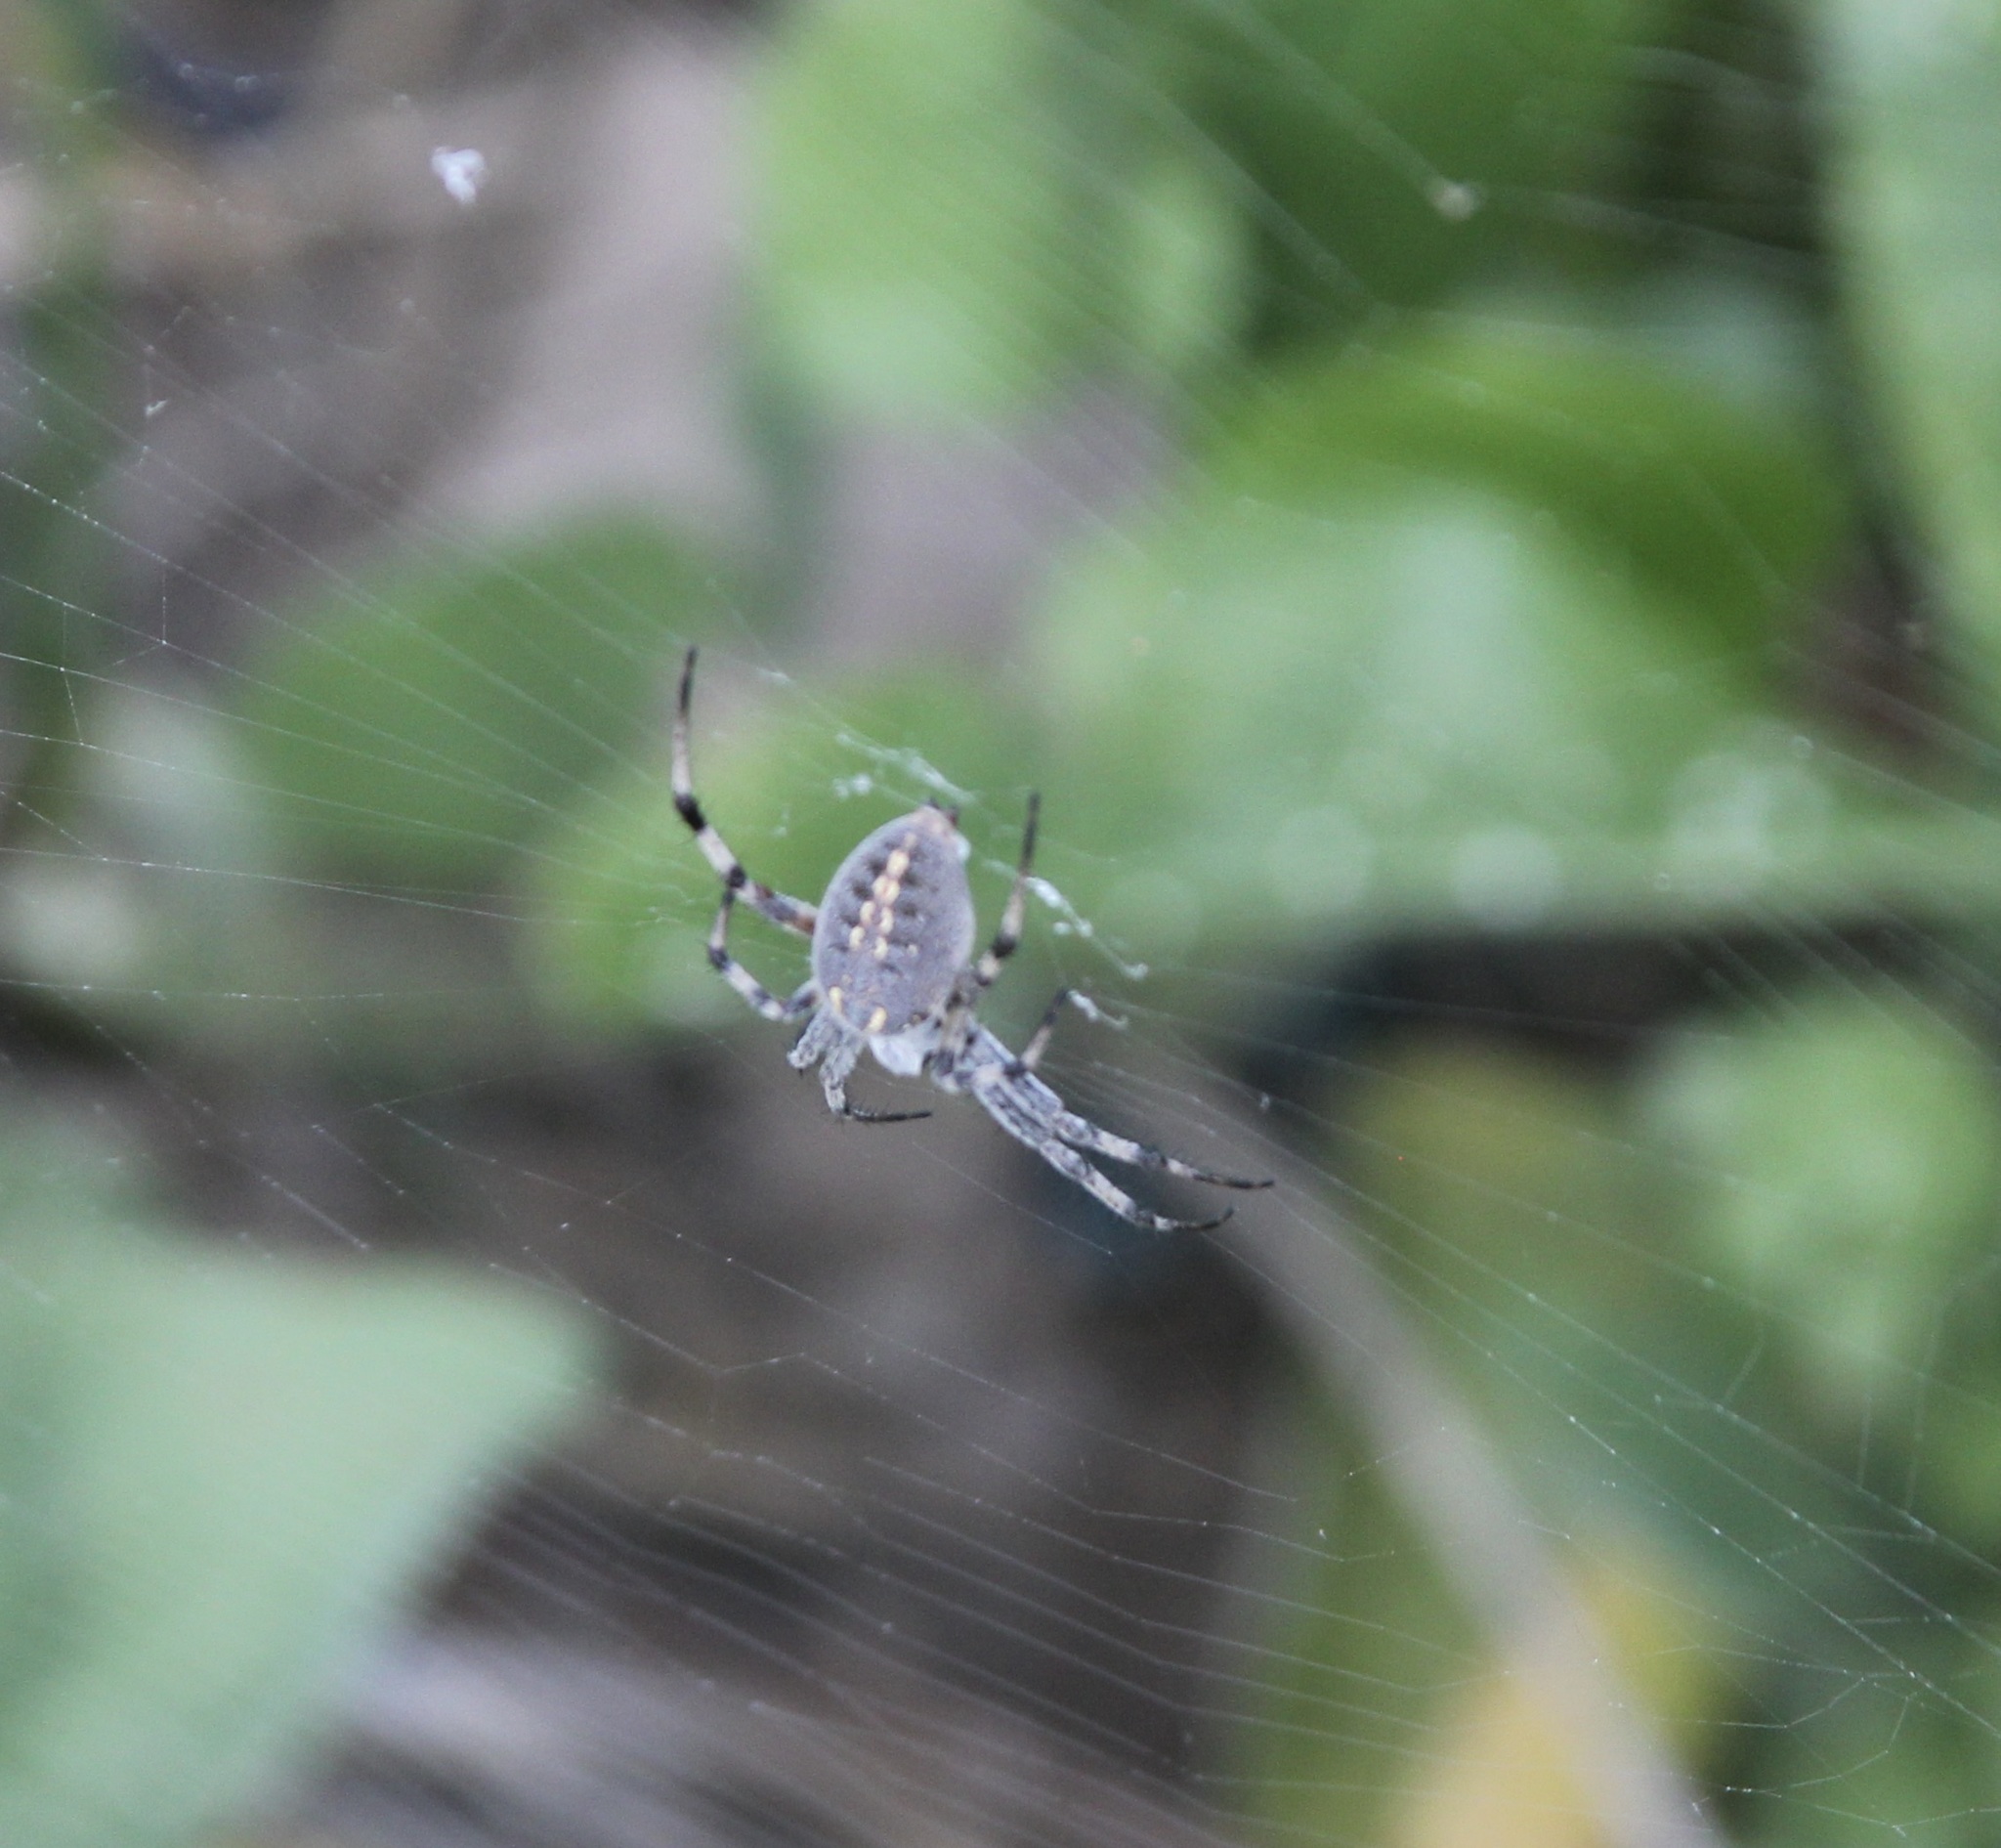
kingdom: Animalia
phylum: Arthropoda
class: Arachnida
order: Araneae
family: Araneidae
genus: Neoscona
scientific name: Neoscona oaxacensis
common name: Orb weavers
